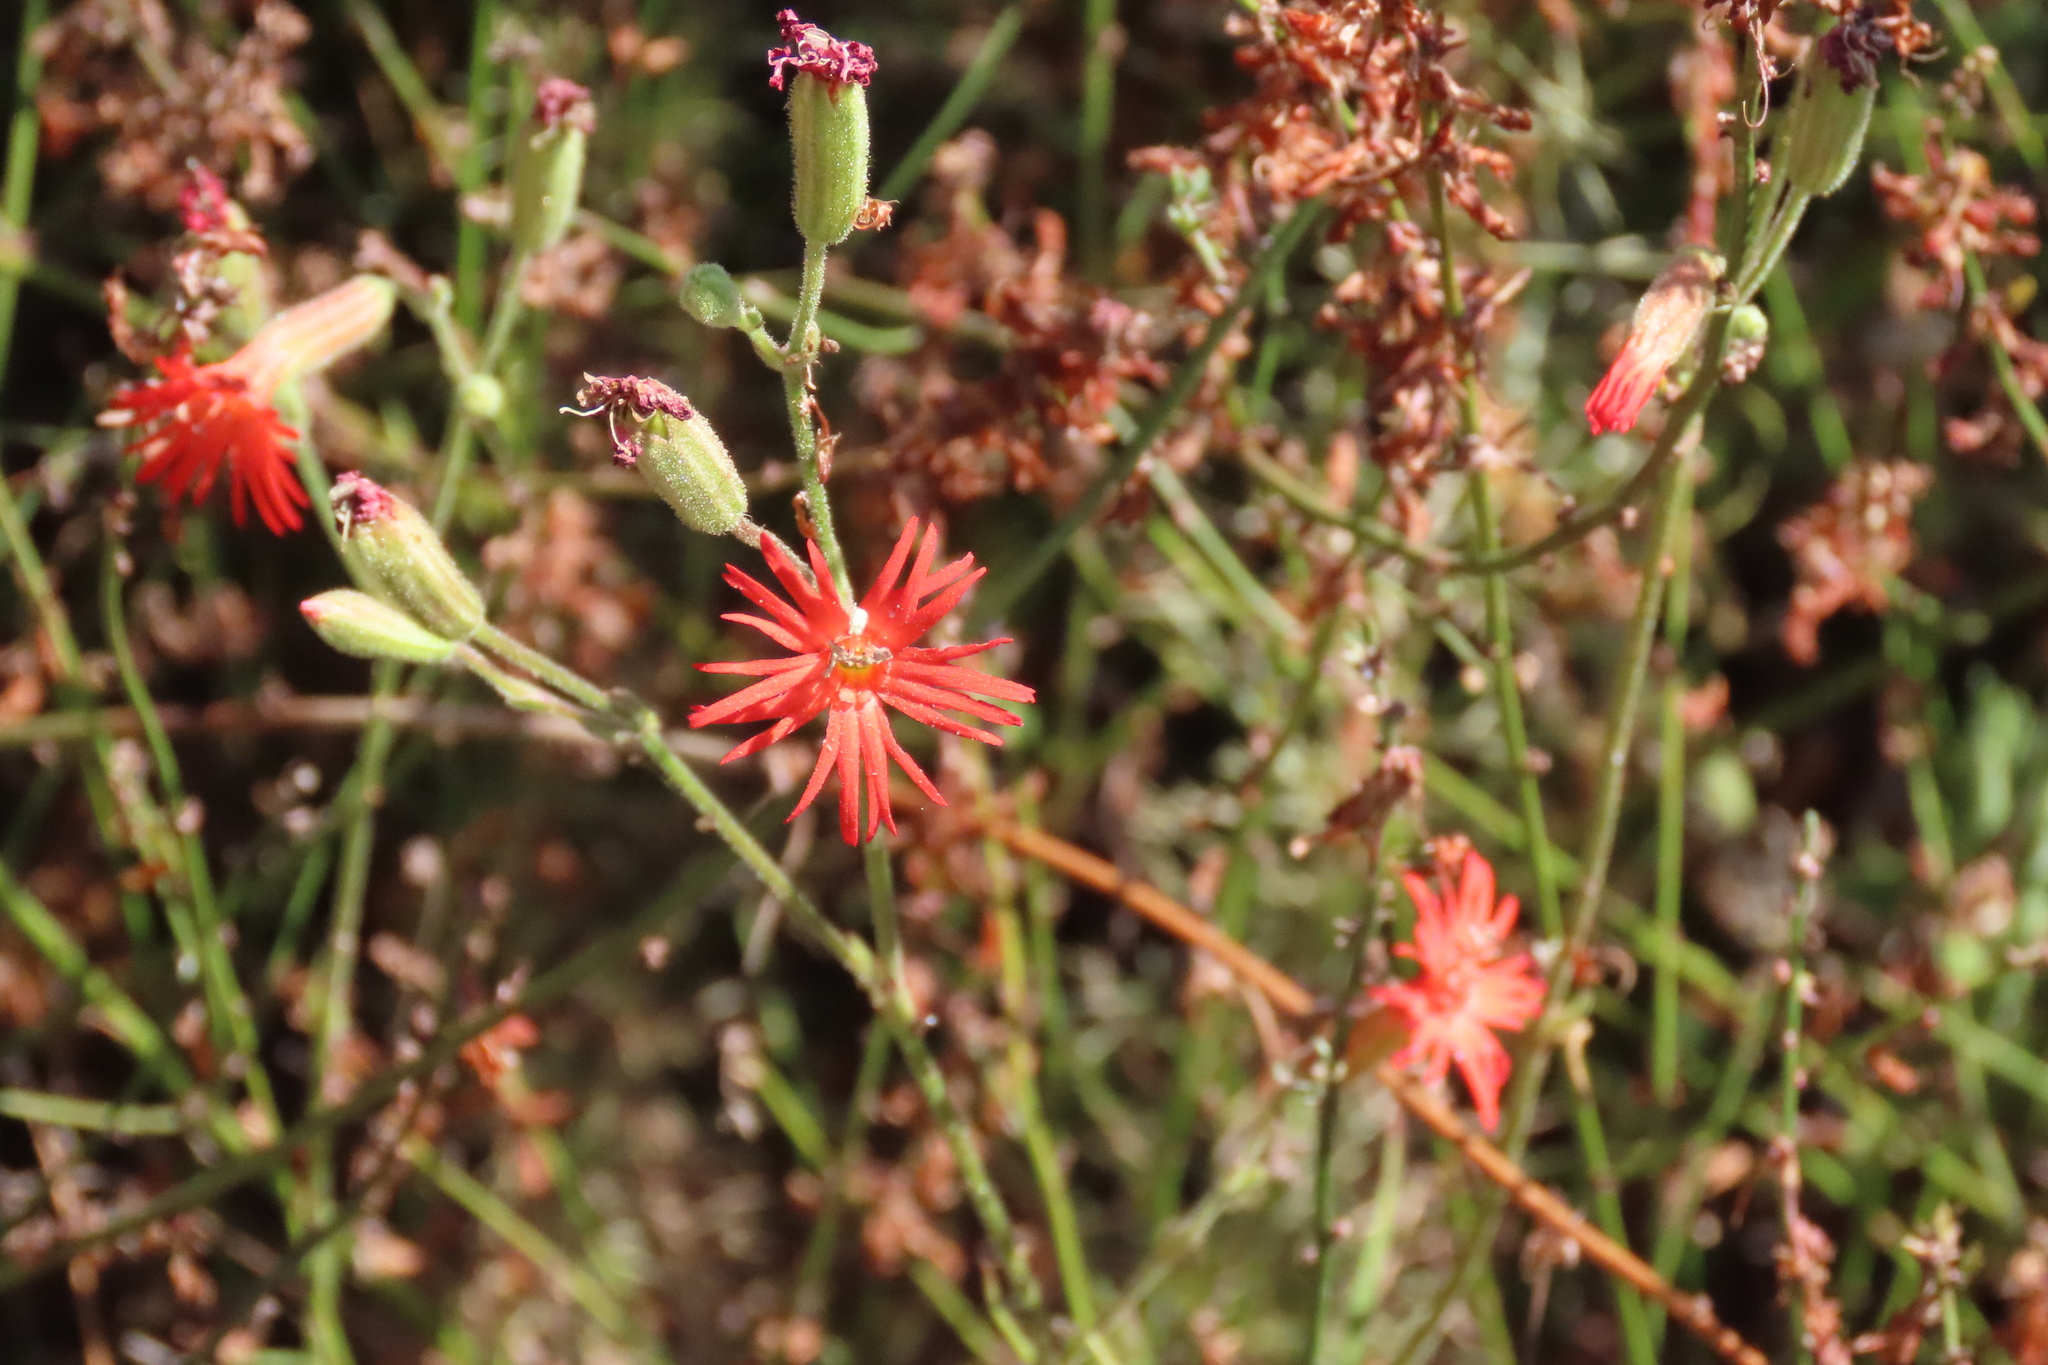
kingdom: Plantae
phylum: Tracheophyta
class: Magnoliopsida
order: Caryophyllales
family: Caryophyllaceae
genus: Silene
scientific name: Silene laciniata
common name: Indian-pink
